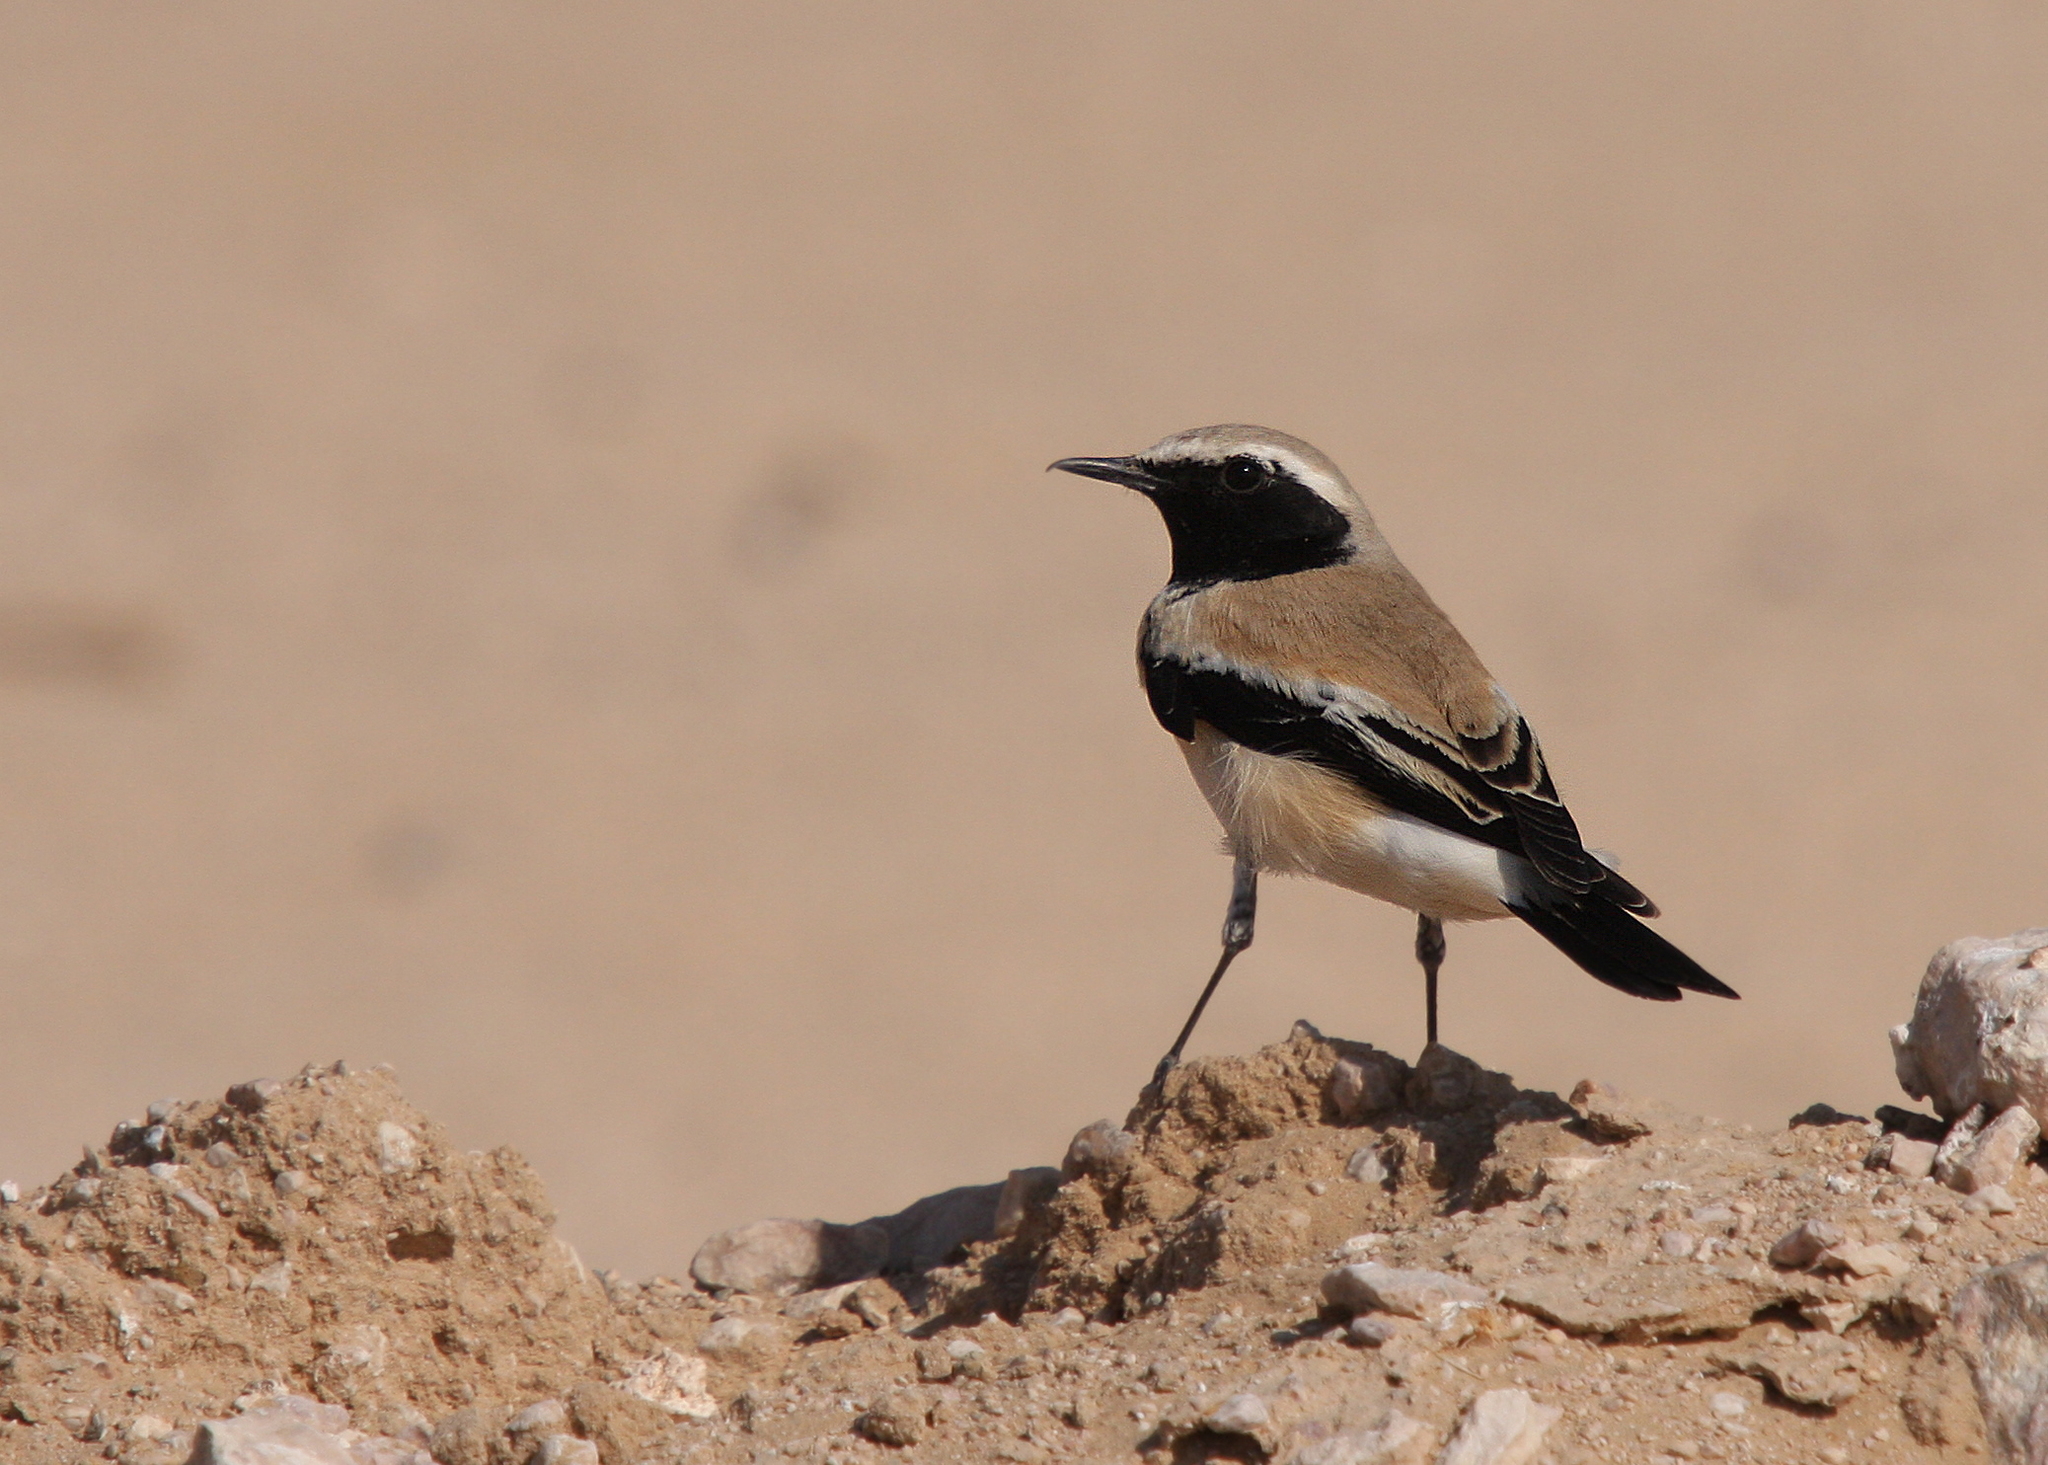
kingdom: Animalia
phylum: Chordata
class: Aves
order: Passeriformes
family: Muscicapidae
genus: Oenanthe
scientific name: Oenanthe deserti
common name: Desert wheatear
